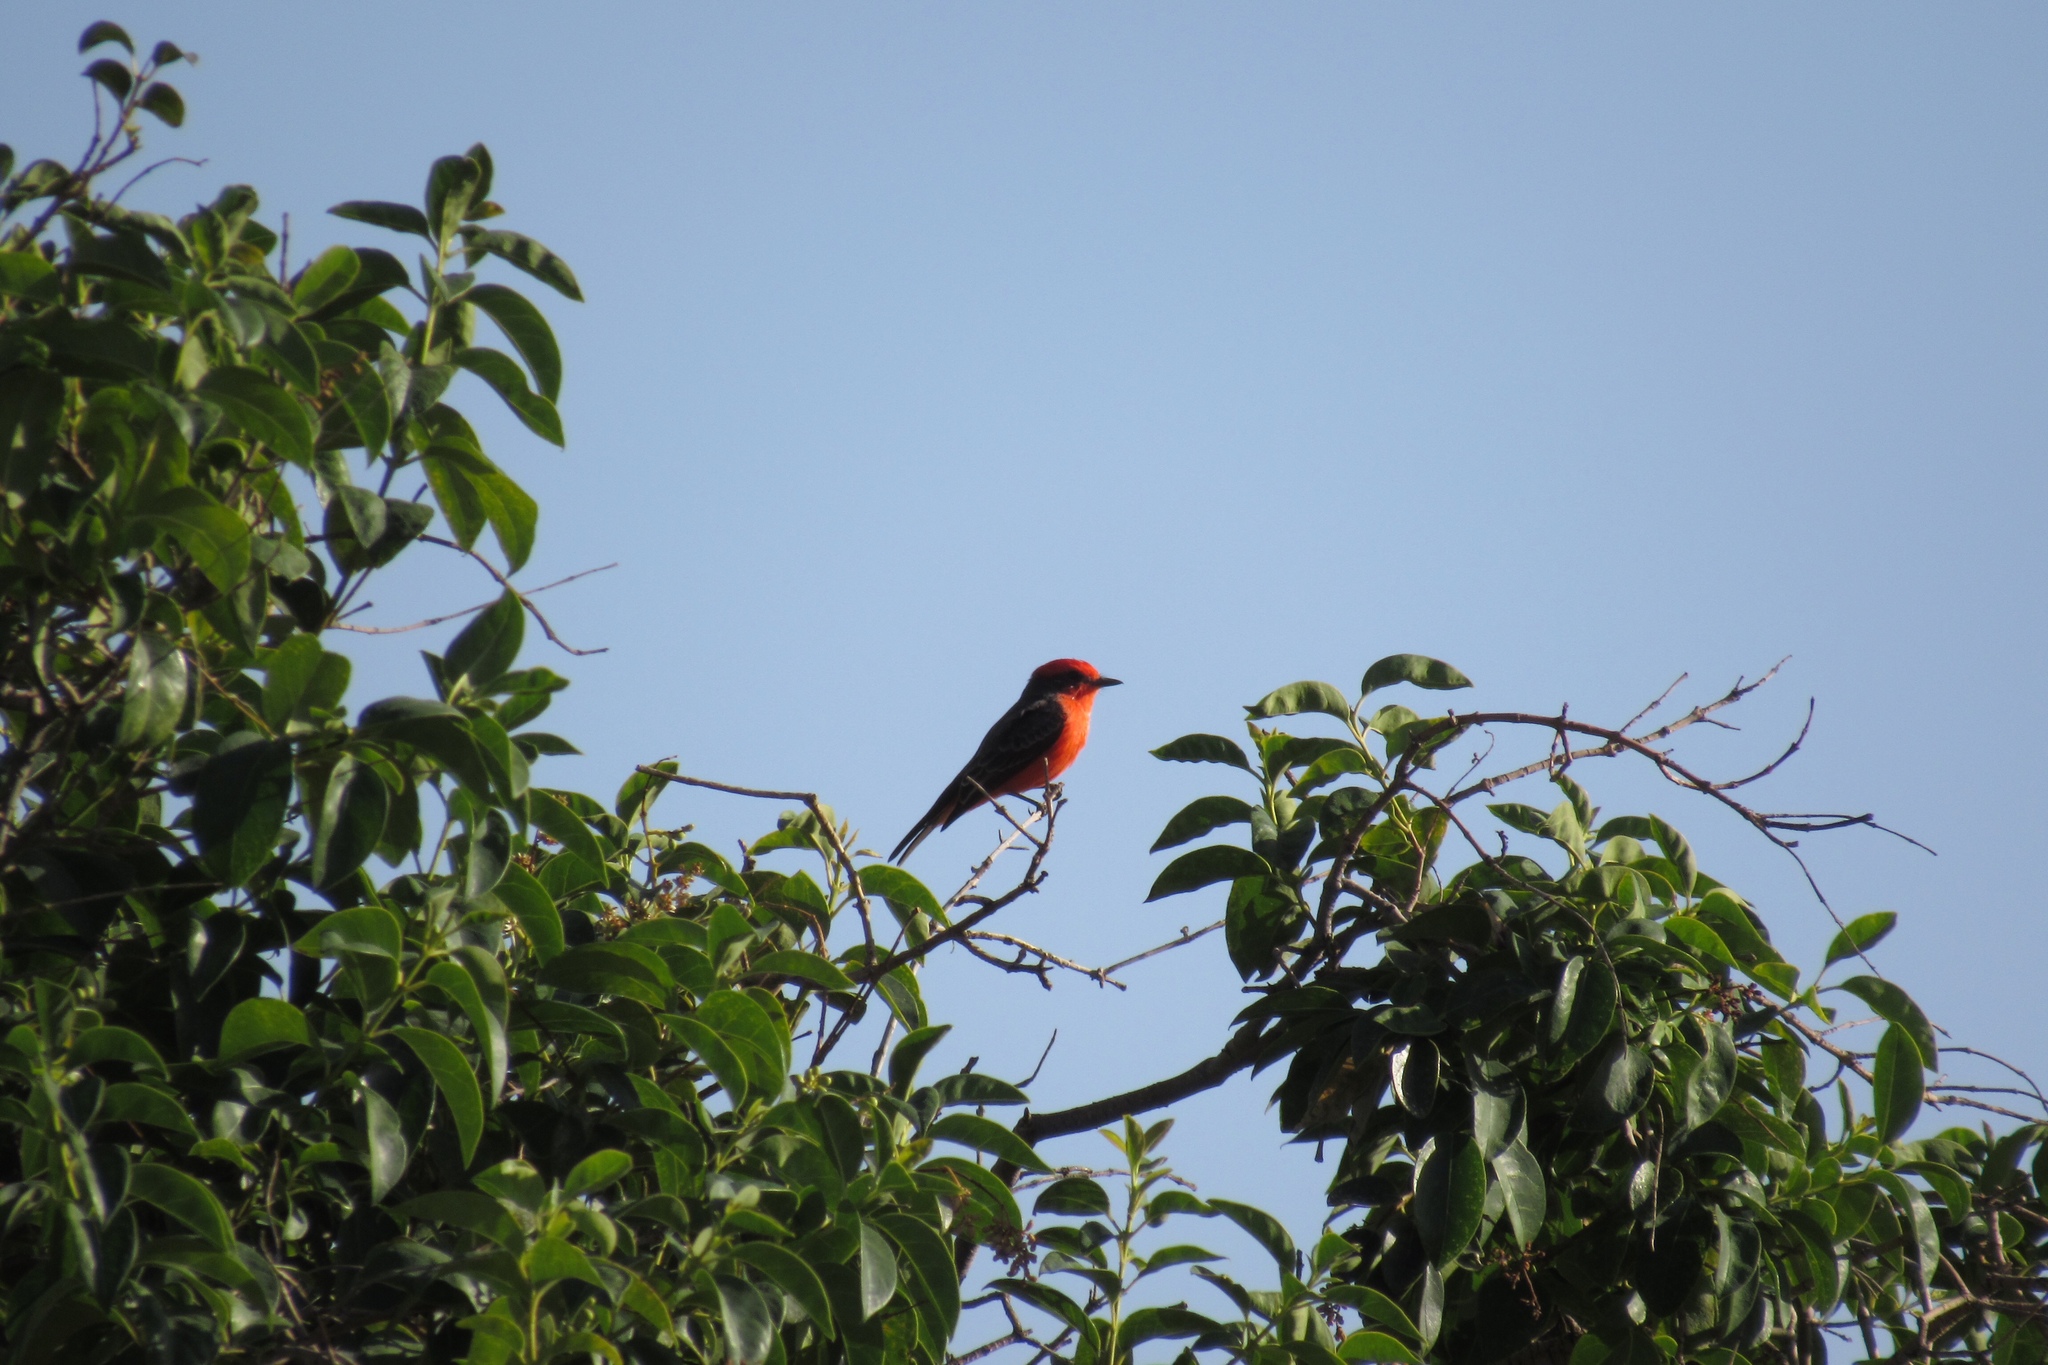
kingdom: Animalia
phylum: Chordata
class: Aves
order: Passeriformes
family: Tyrannidae
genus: Pyrocephalus
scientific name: Pyrocephalus rubinus
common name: Vermilion flycatcher
